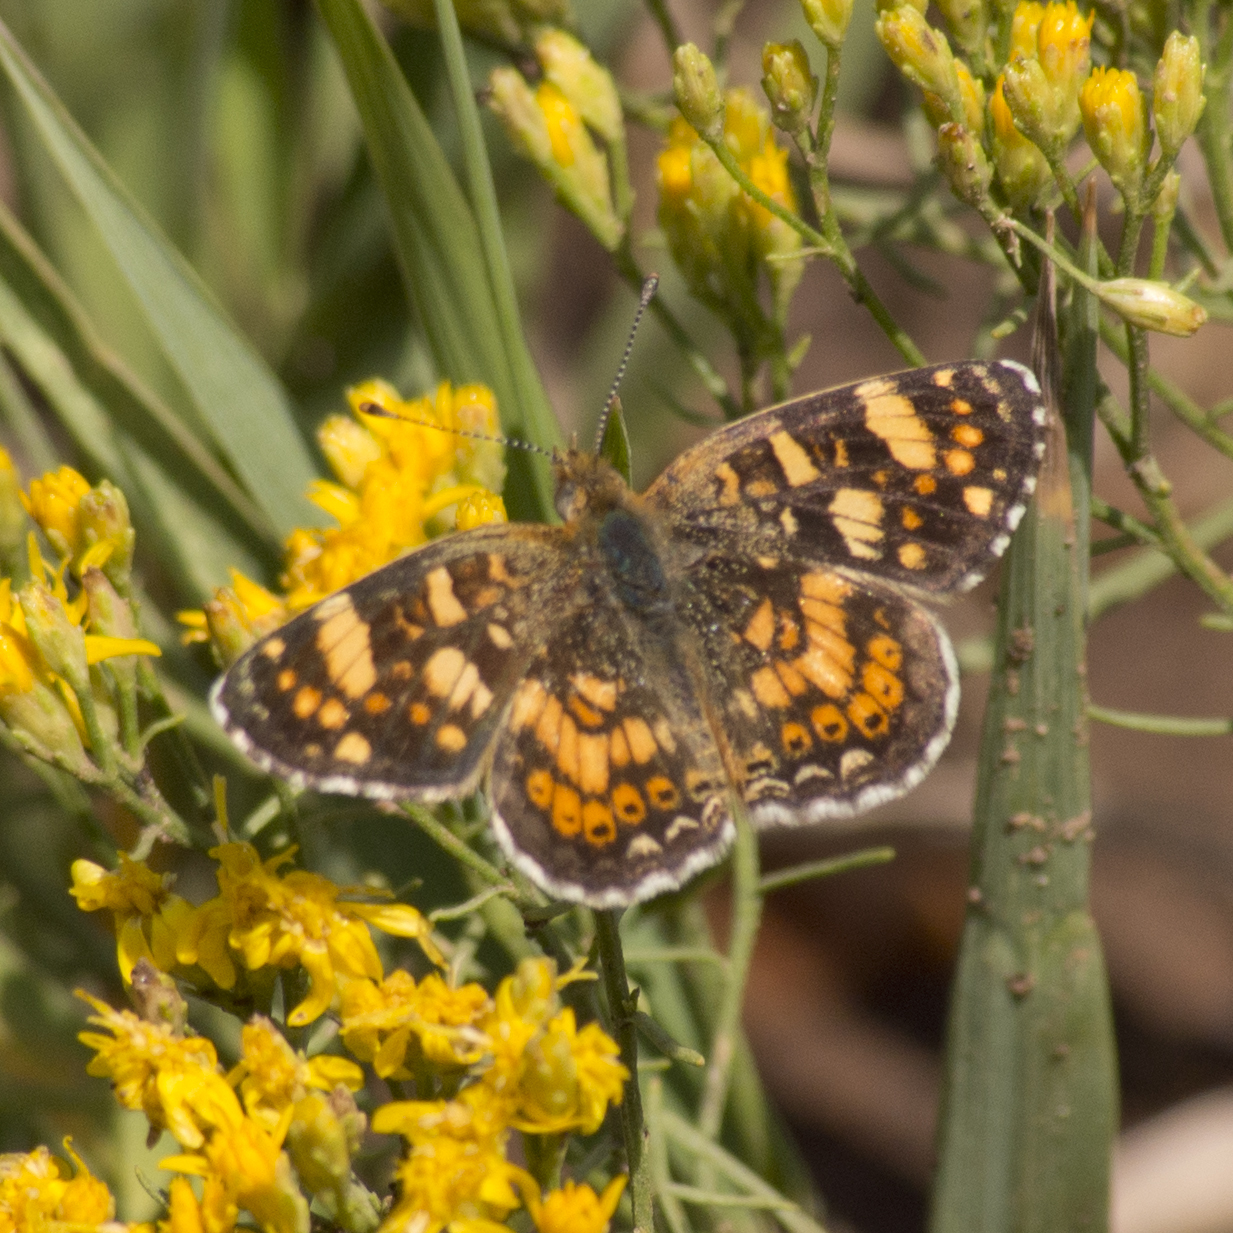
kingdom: Animalia
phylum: Arthropoda
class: Insecta
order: Lepidoptera
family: Nymphalidae
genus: Phyciodes
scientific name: Phyciodes tharos
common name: Pearl crescent
